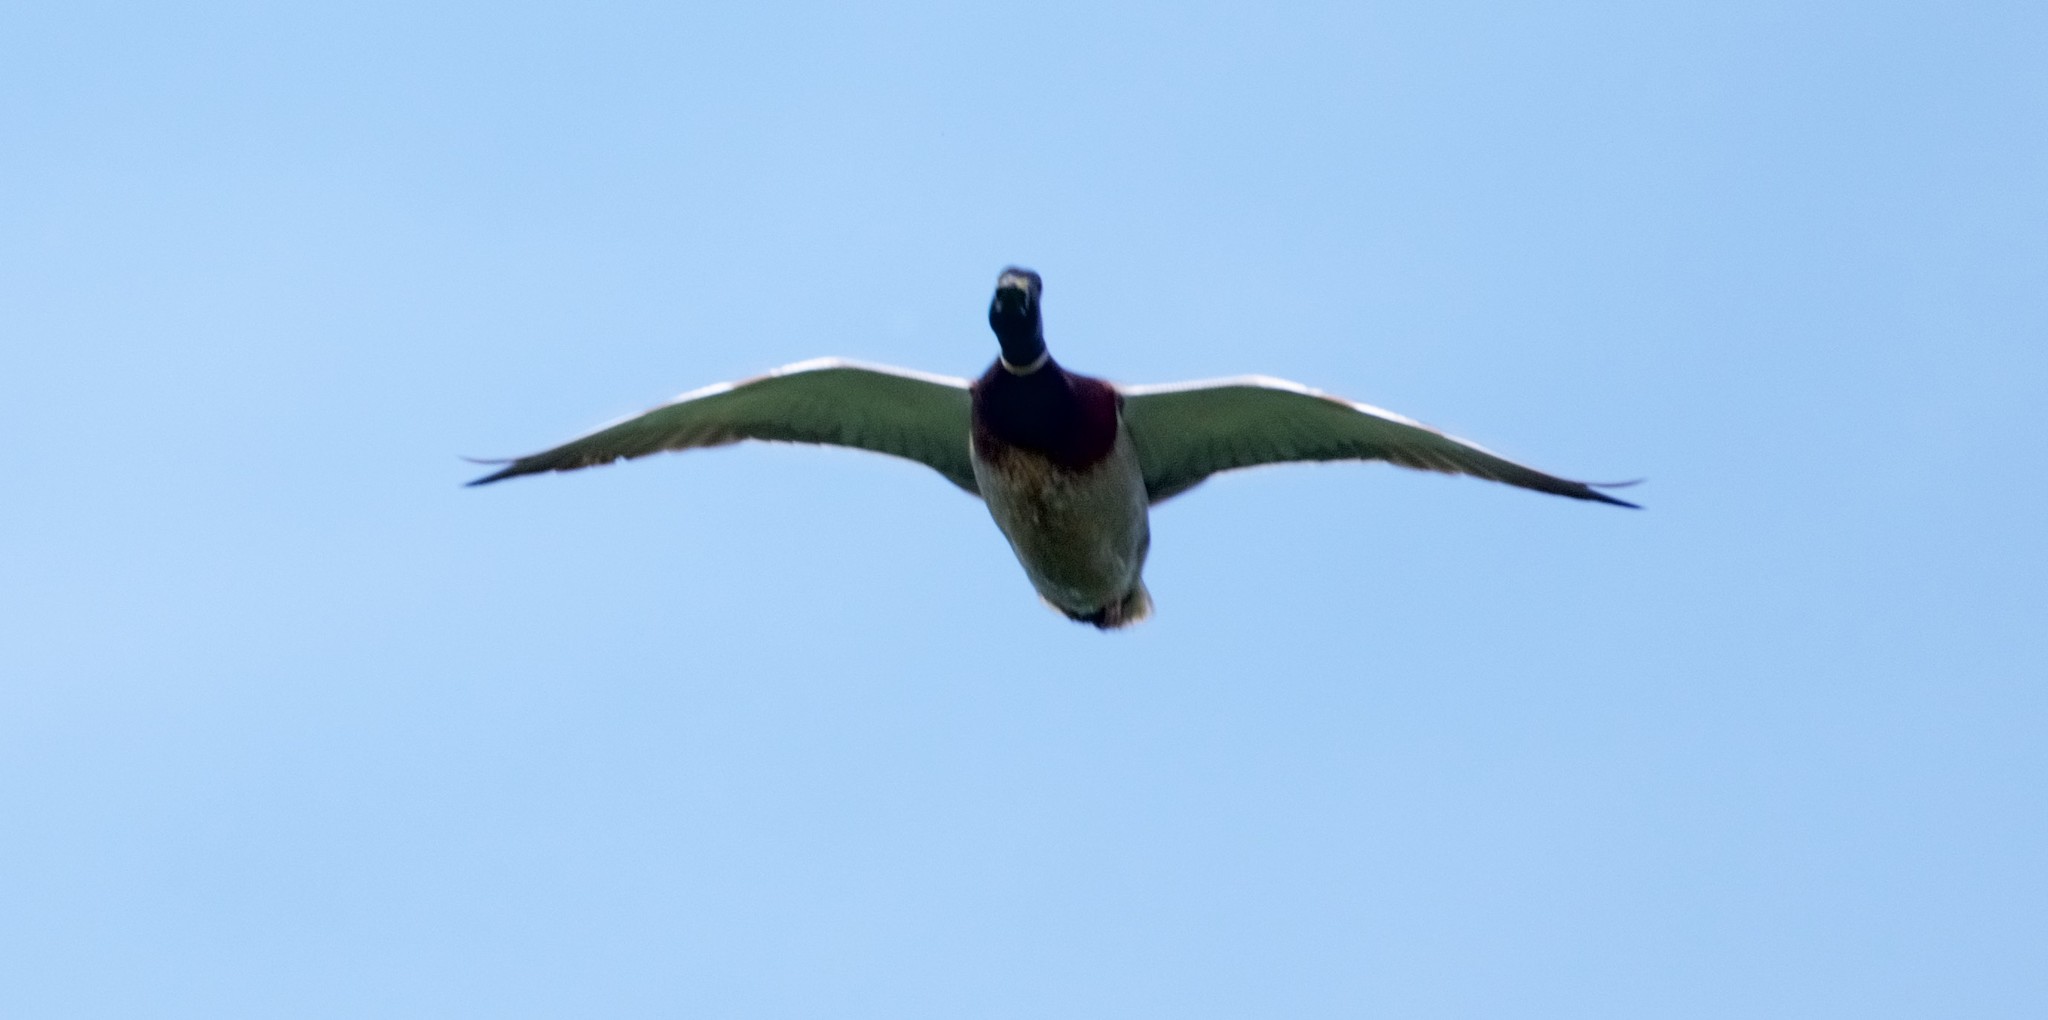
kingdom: Animalia
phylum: Chordata
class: Aves
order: Anseriformes
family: Anatidae
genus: Anas
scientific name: Anas platyrhynchos
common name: Mallard
